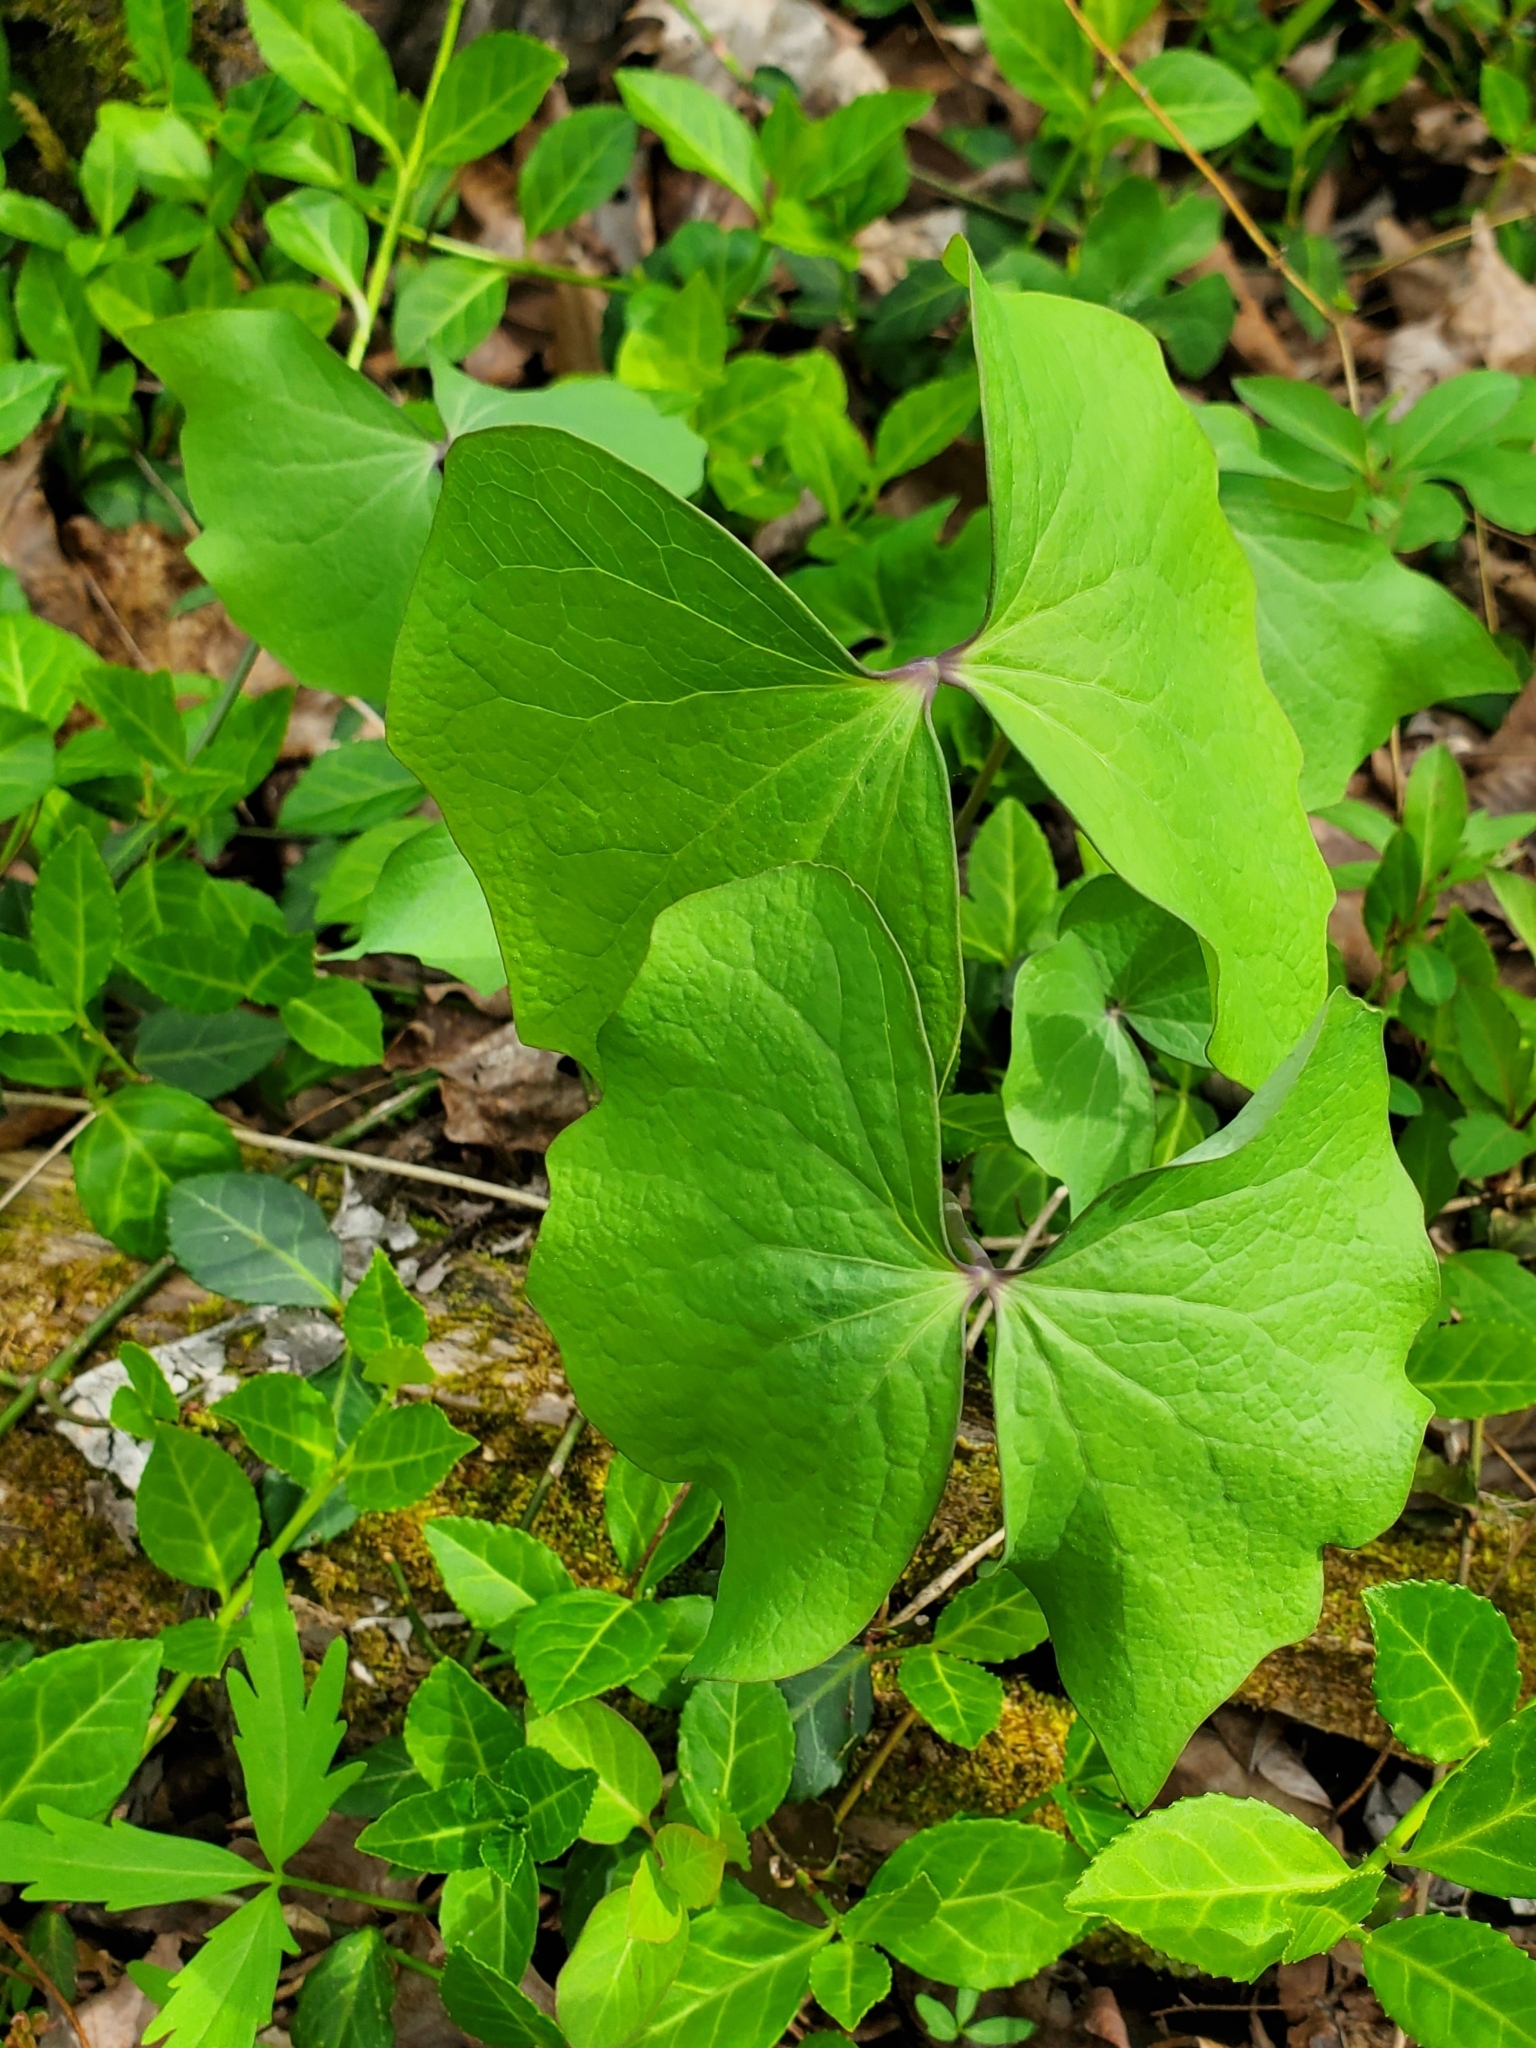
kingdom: Plantae
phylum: Tracheophyta
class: Magnoliopsida
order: Ranunculales
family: Berberidaceae
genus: Jeffersonia
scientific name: Jeffersonia diphylla
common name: Rheumatism-root
